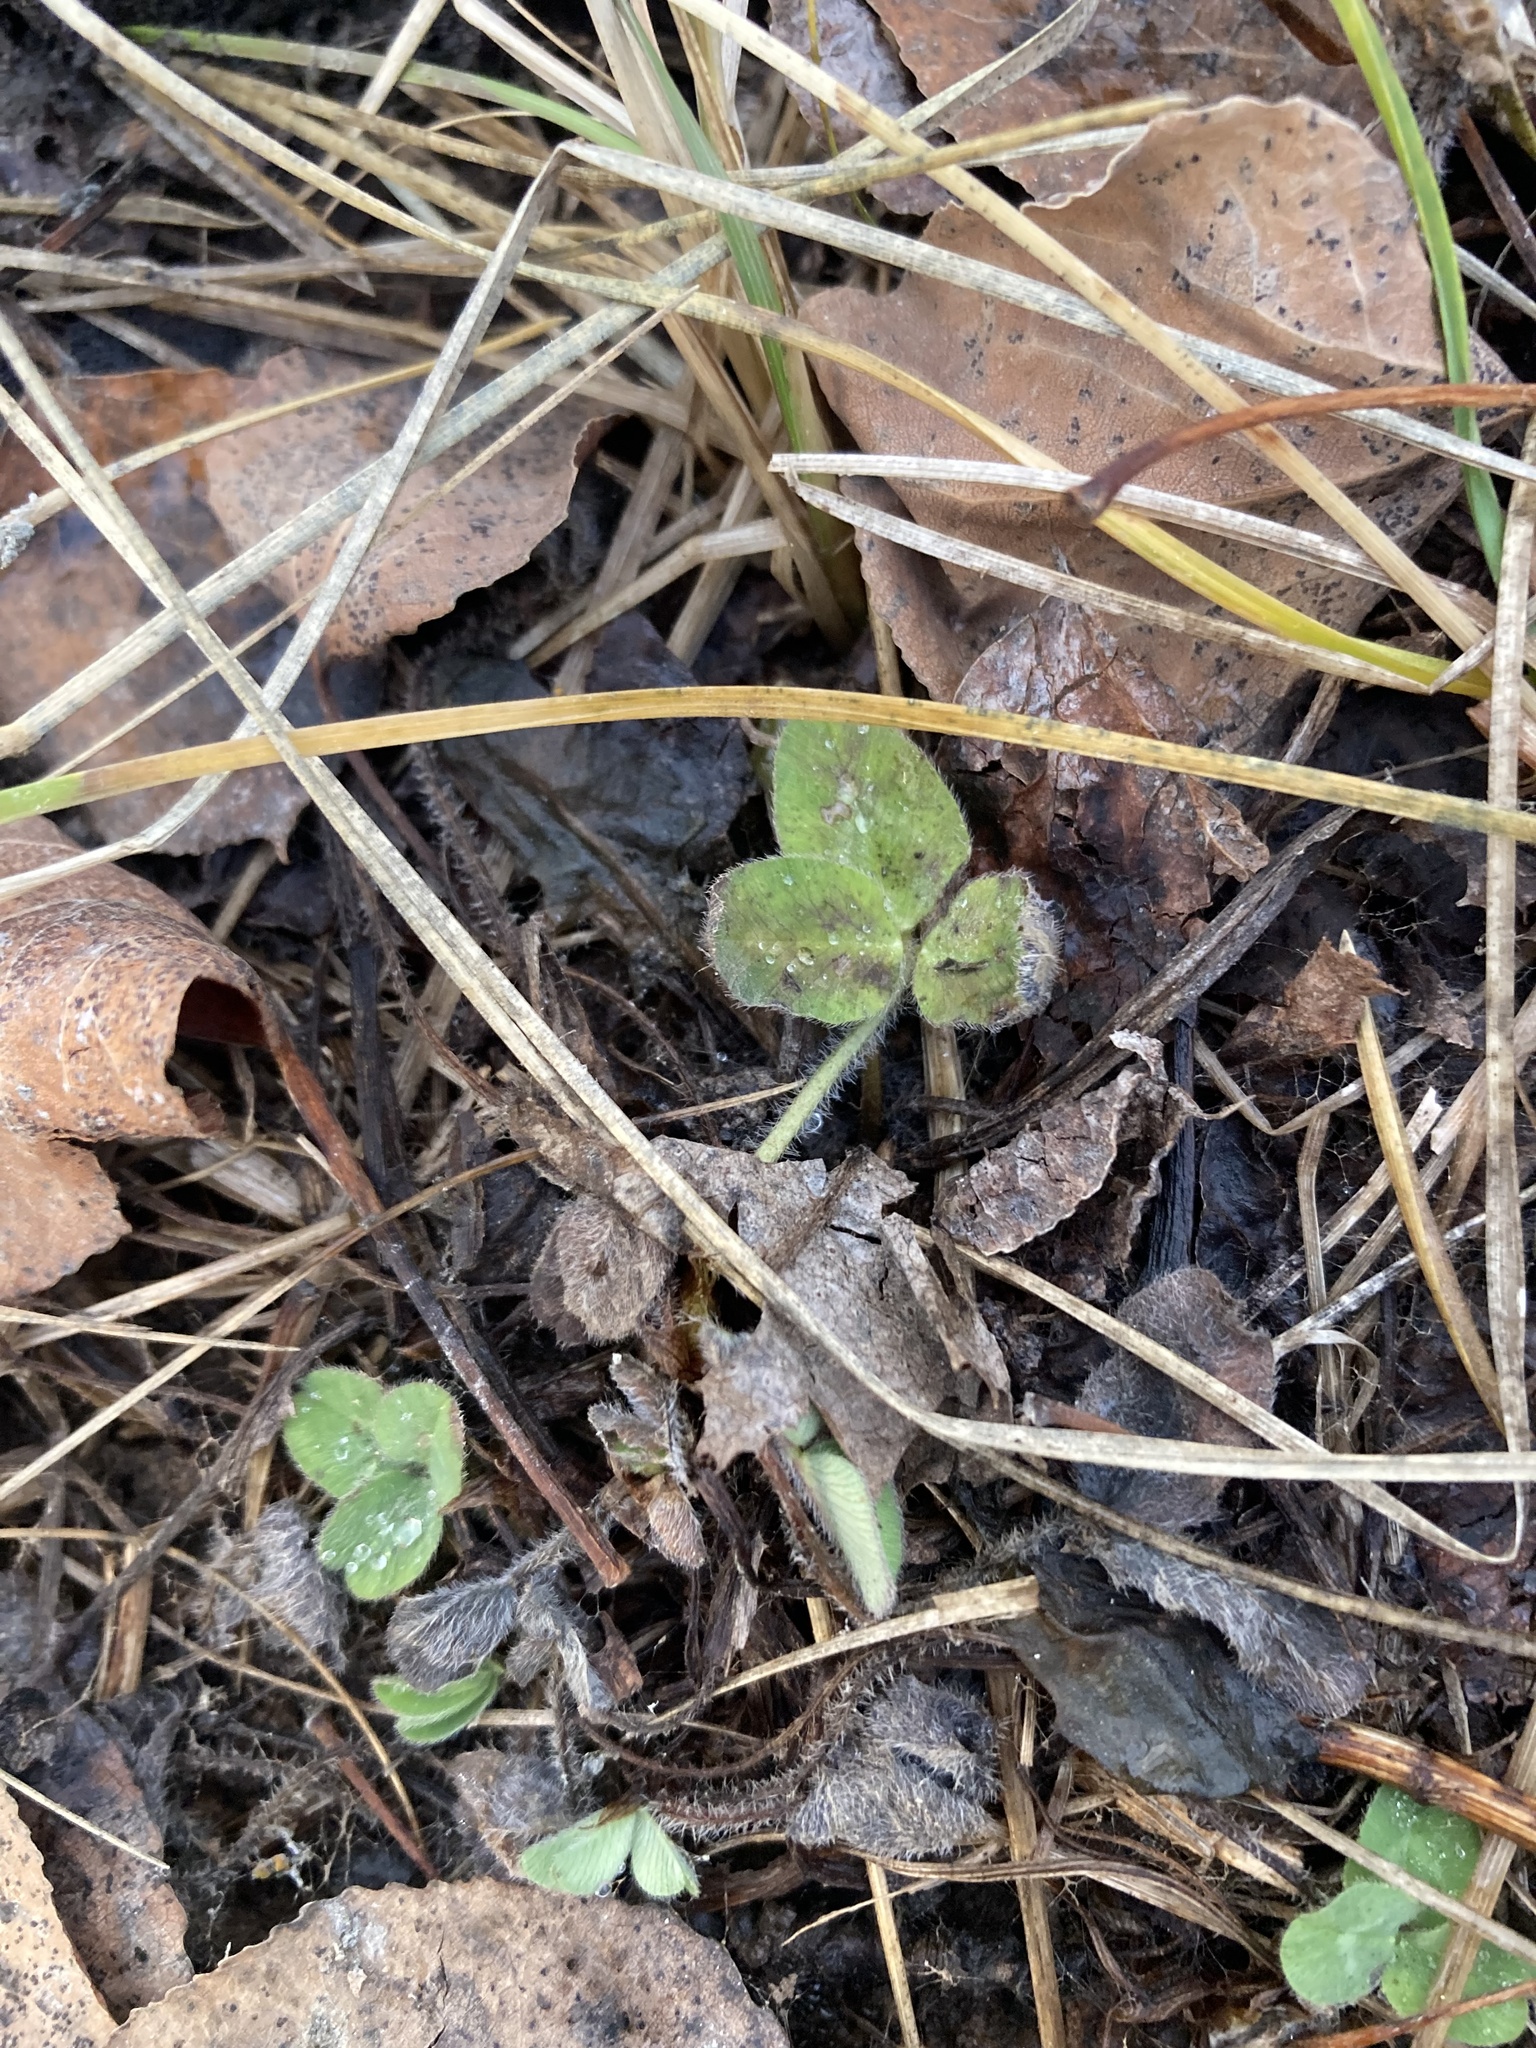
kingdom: Plantae
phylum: Tracheophyta
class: Magnoliopsida
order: Fabales
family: Fabaceae
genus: Trifolium
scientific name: Trifolium pratense
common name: Red clover
